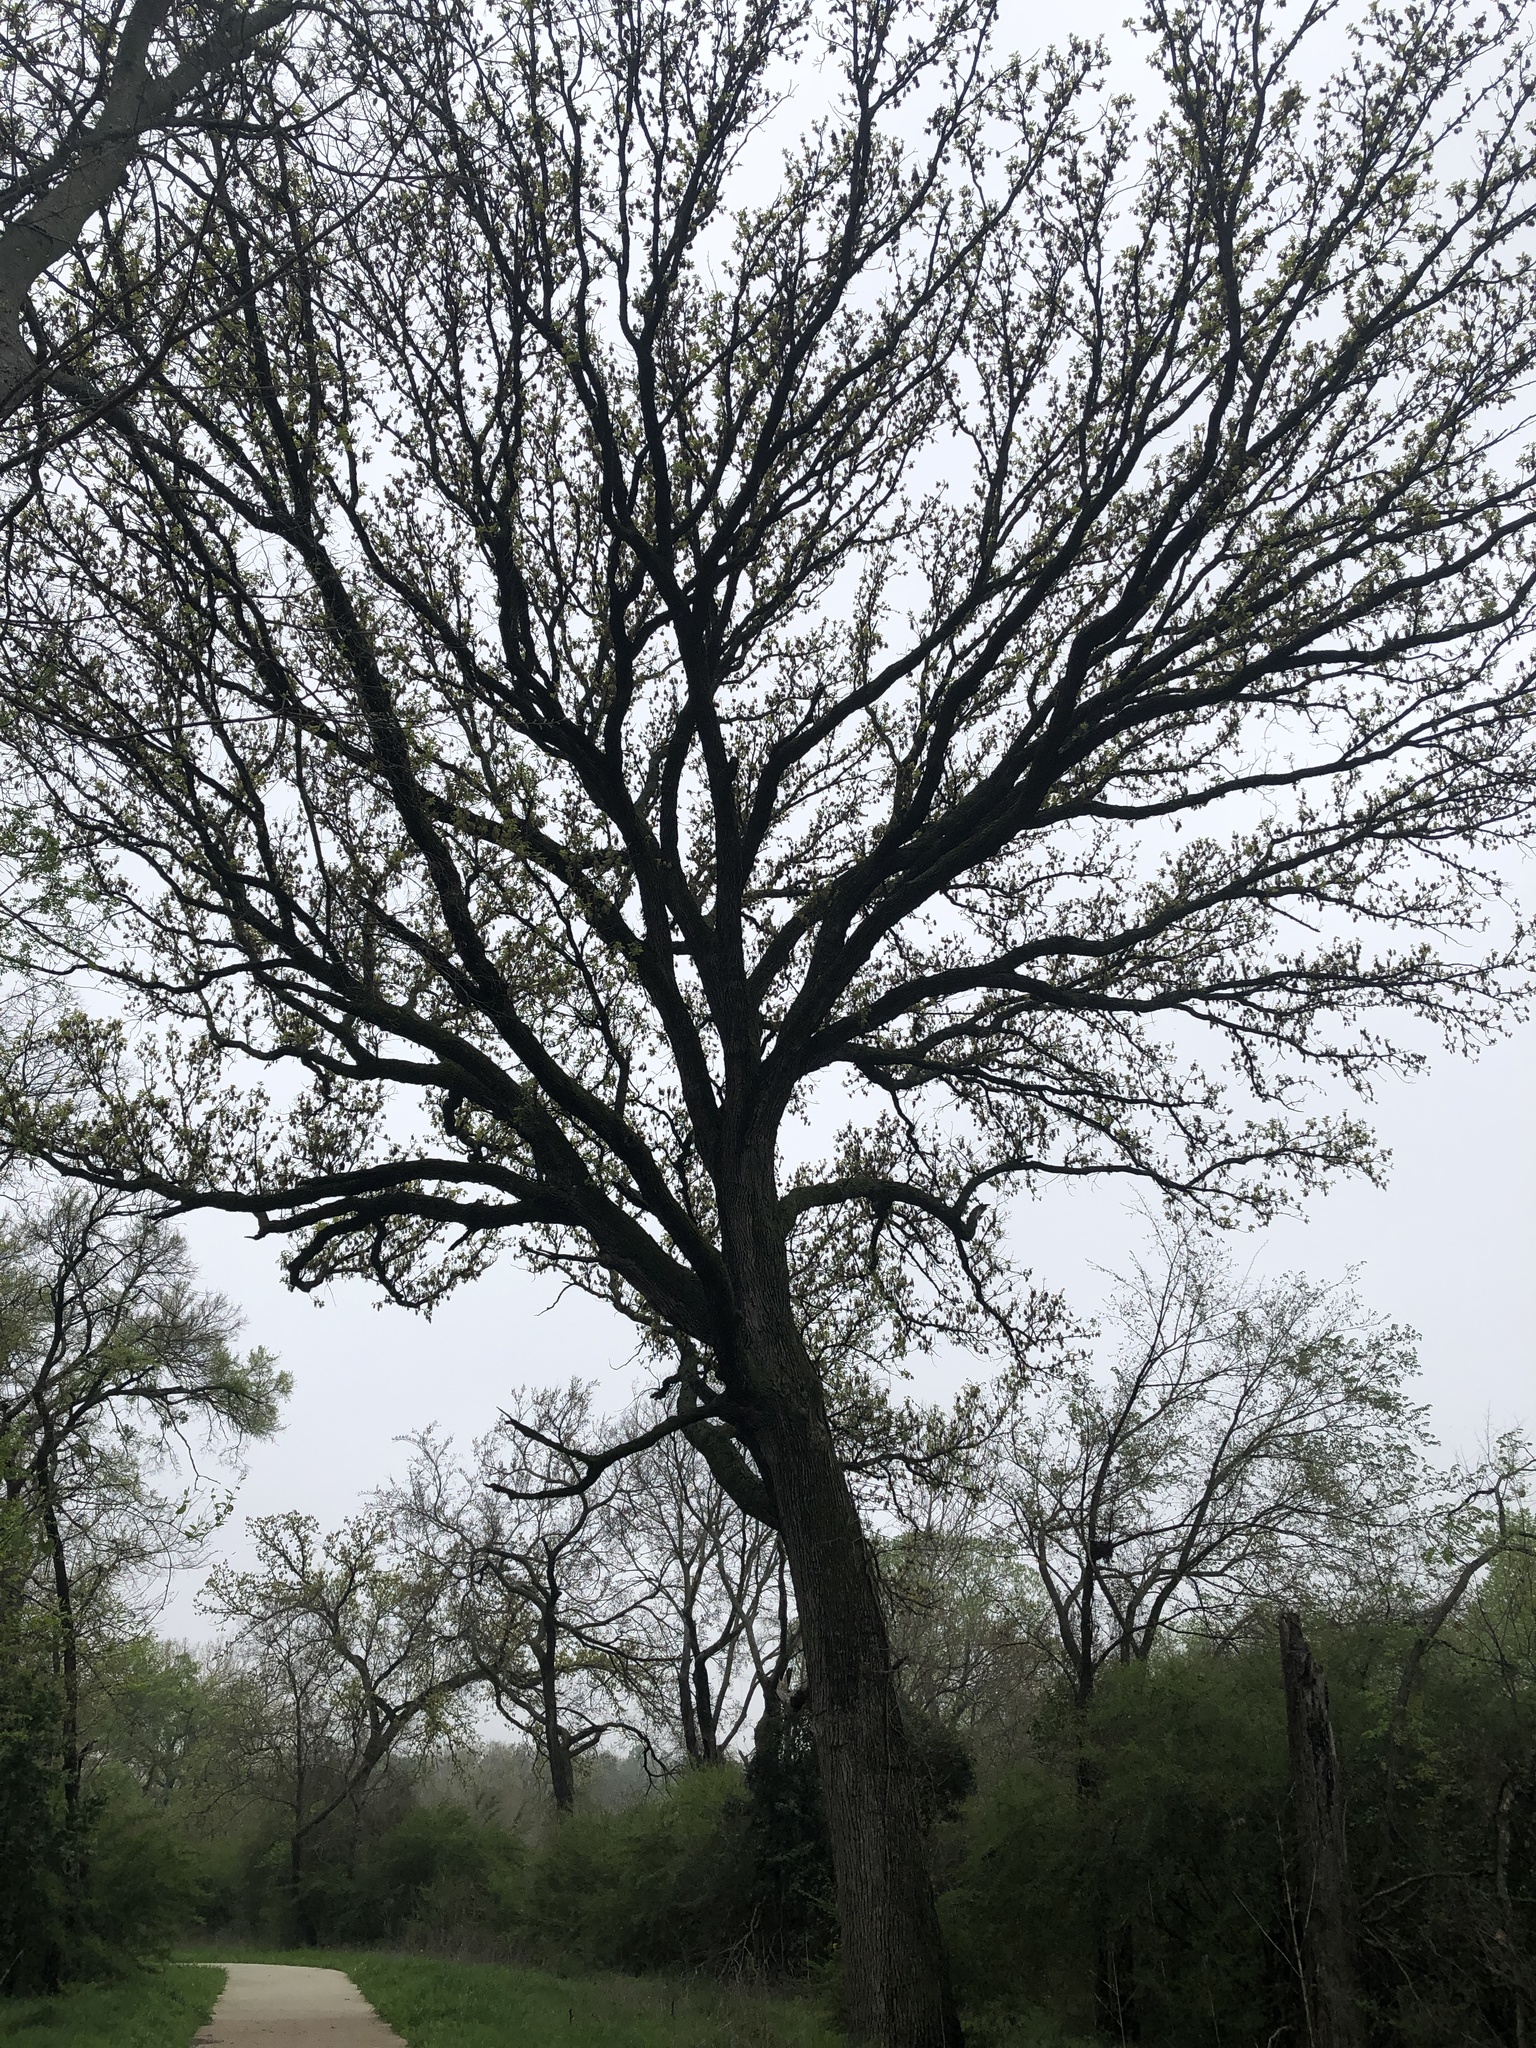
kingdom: Plantae
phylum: Tracheophyta
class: Magnoliopsida
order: Fagales
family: Fagaceae
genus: Quercus
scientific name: Quercus macrocarpa
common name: Bur oak
